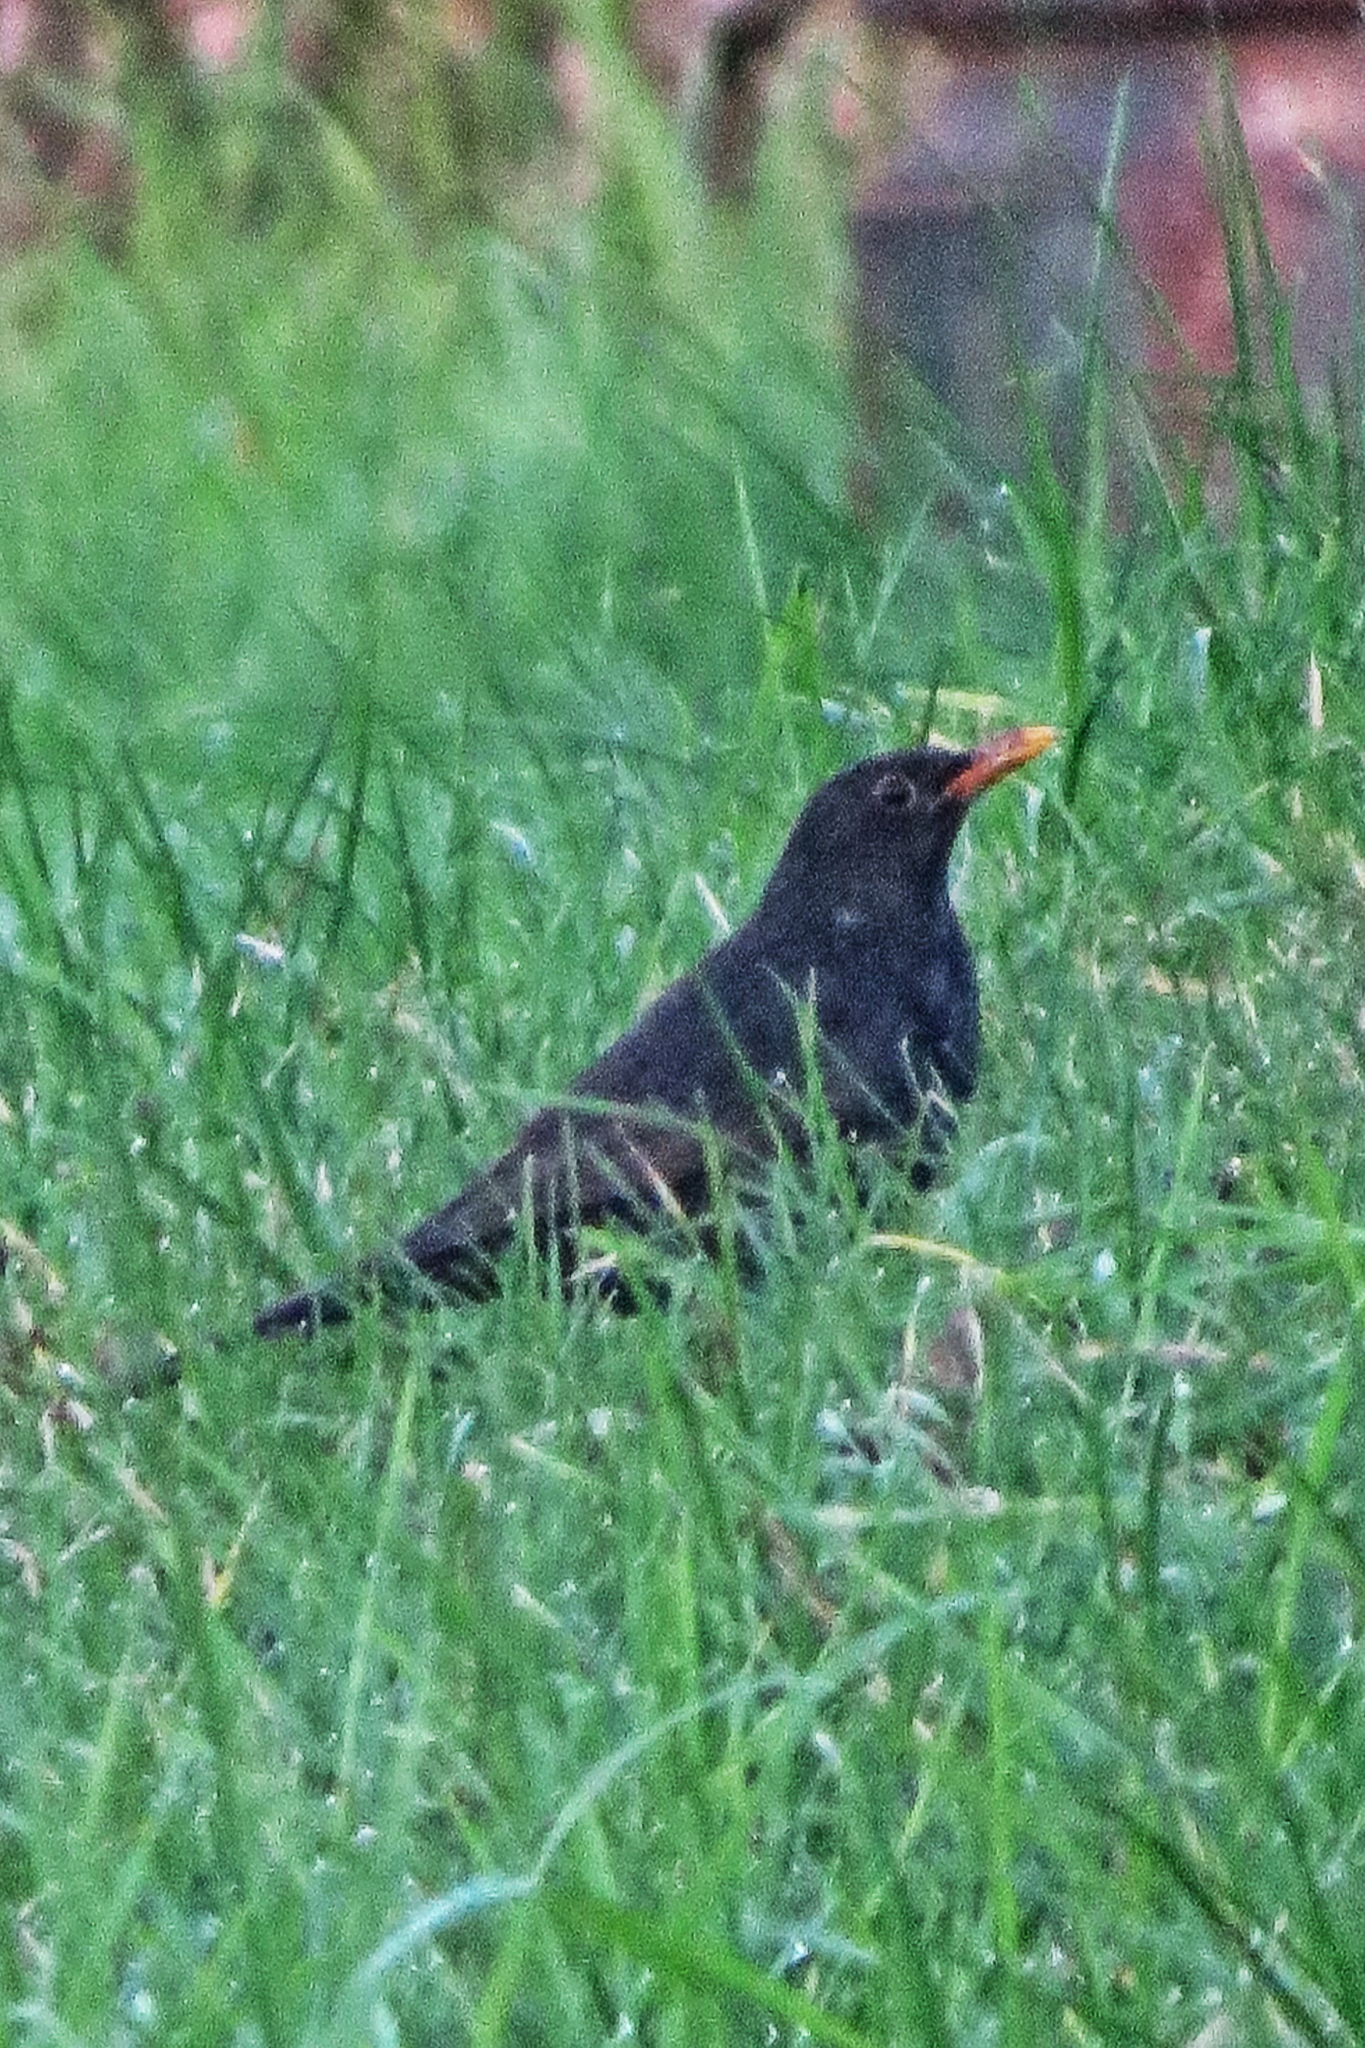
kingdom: Animalia
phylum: Chordata
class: Aves
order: Passeriformes
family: Turdidae
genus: Turdus
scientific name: Turdus merula
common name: Common blackbird
